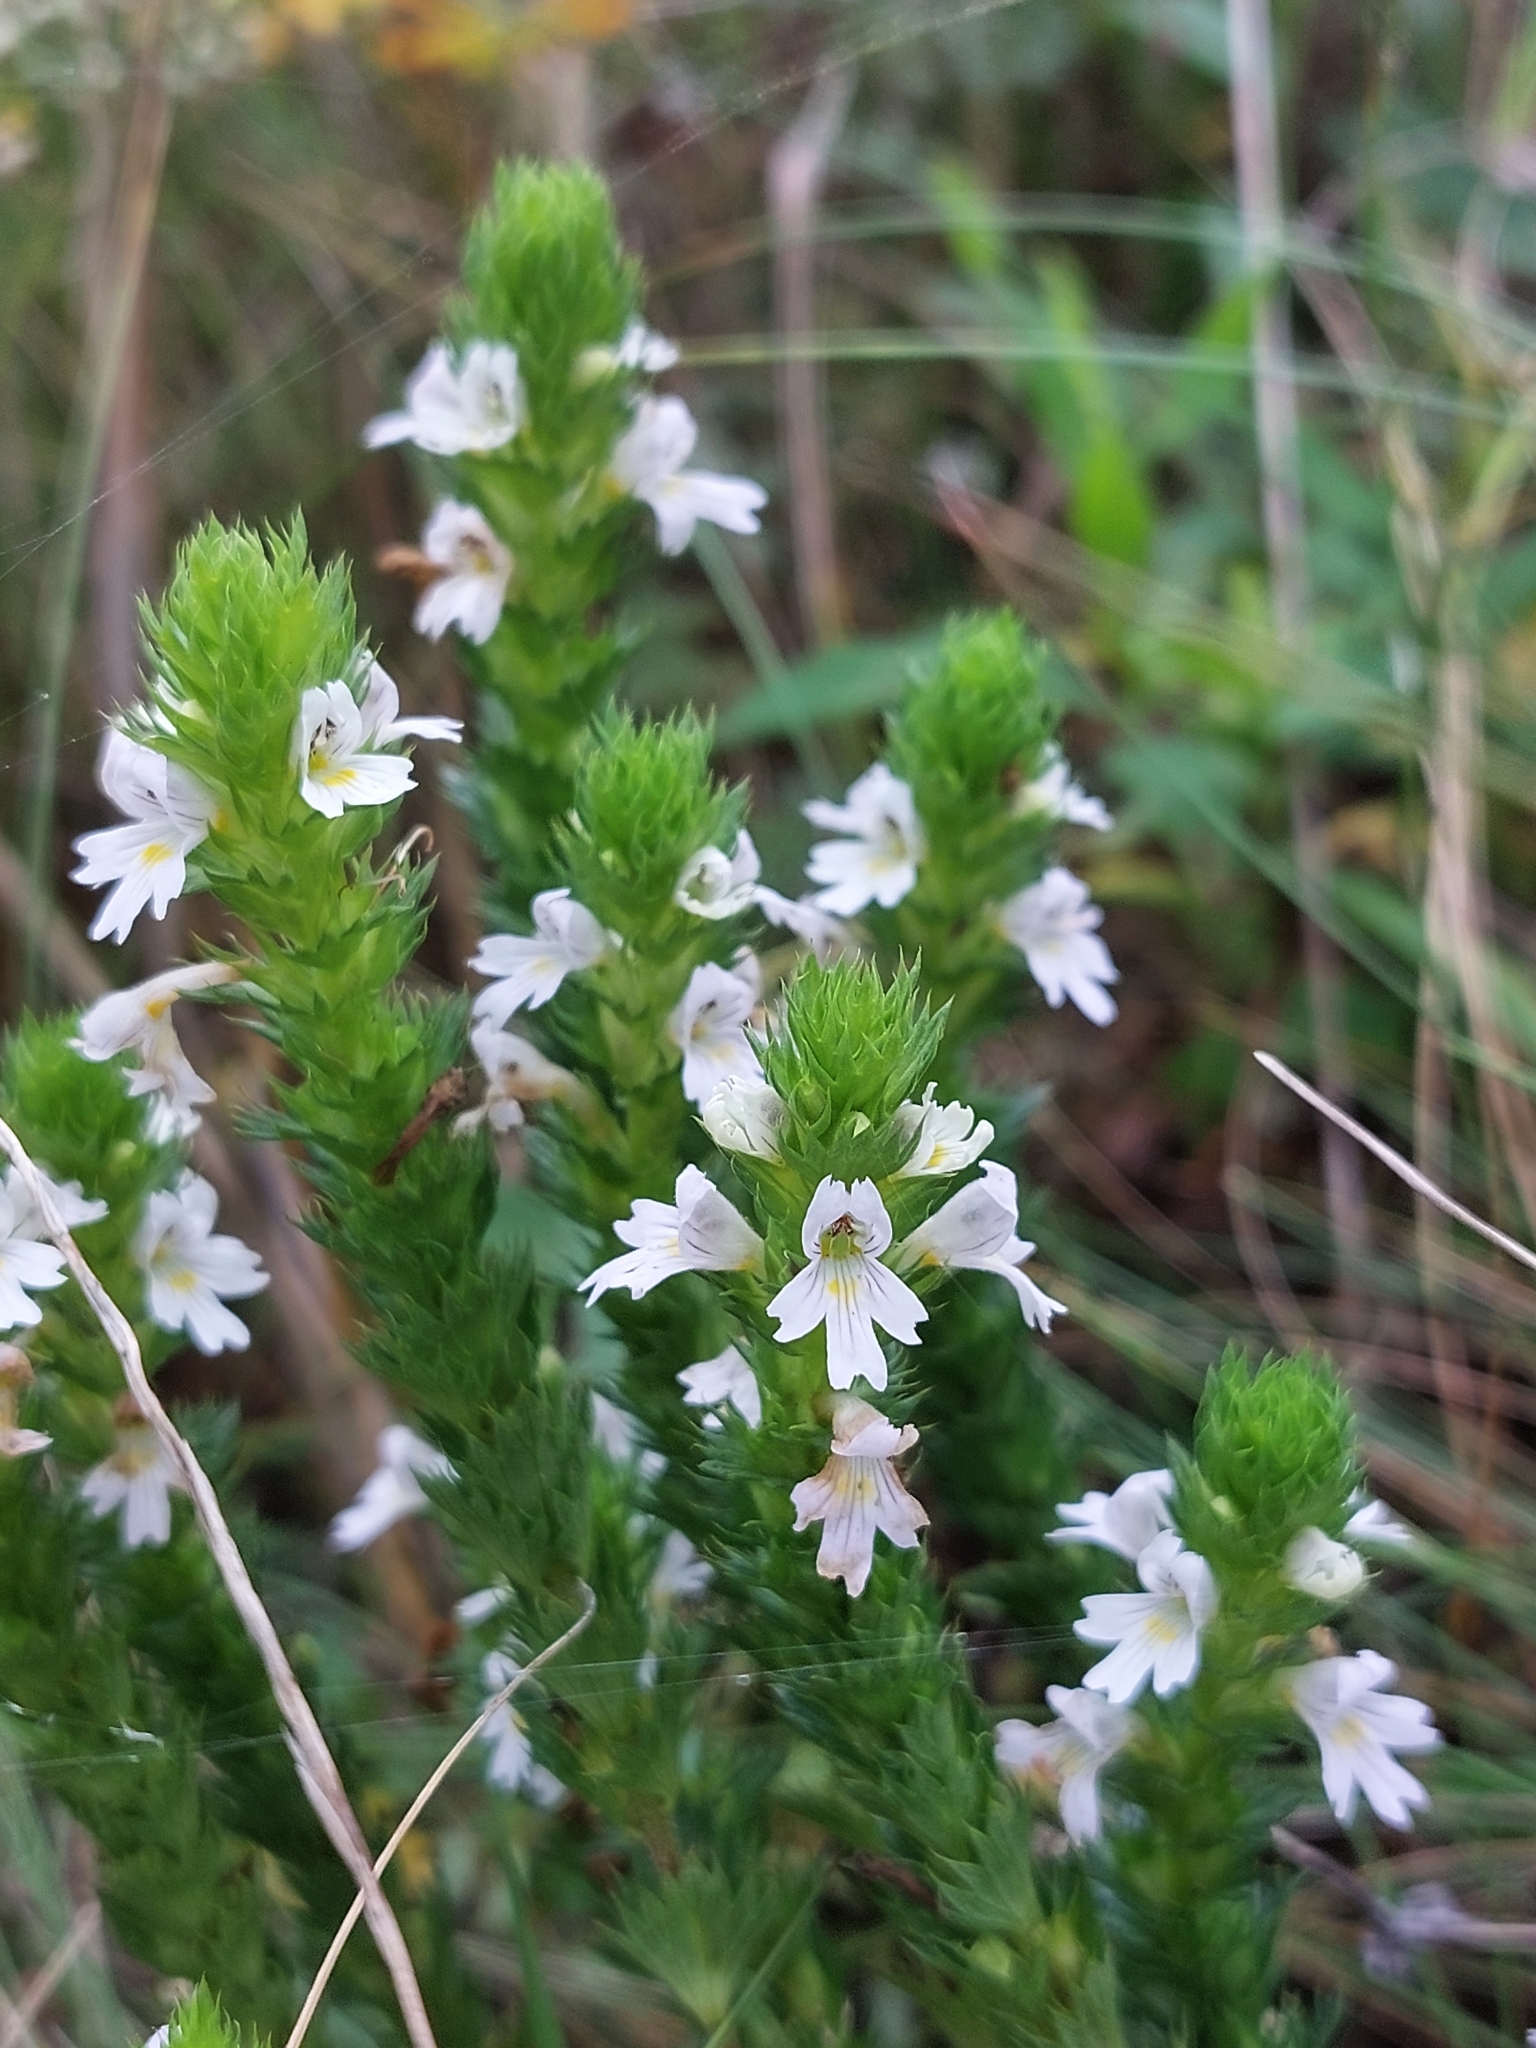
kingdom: Plantae
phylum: Tracheophyta
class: Magnoliopsida
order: Lamiales
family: Orobanchaceae
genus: Euphrasia
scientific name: Euphrasia stricta
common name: Drug eyebright
